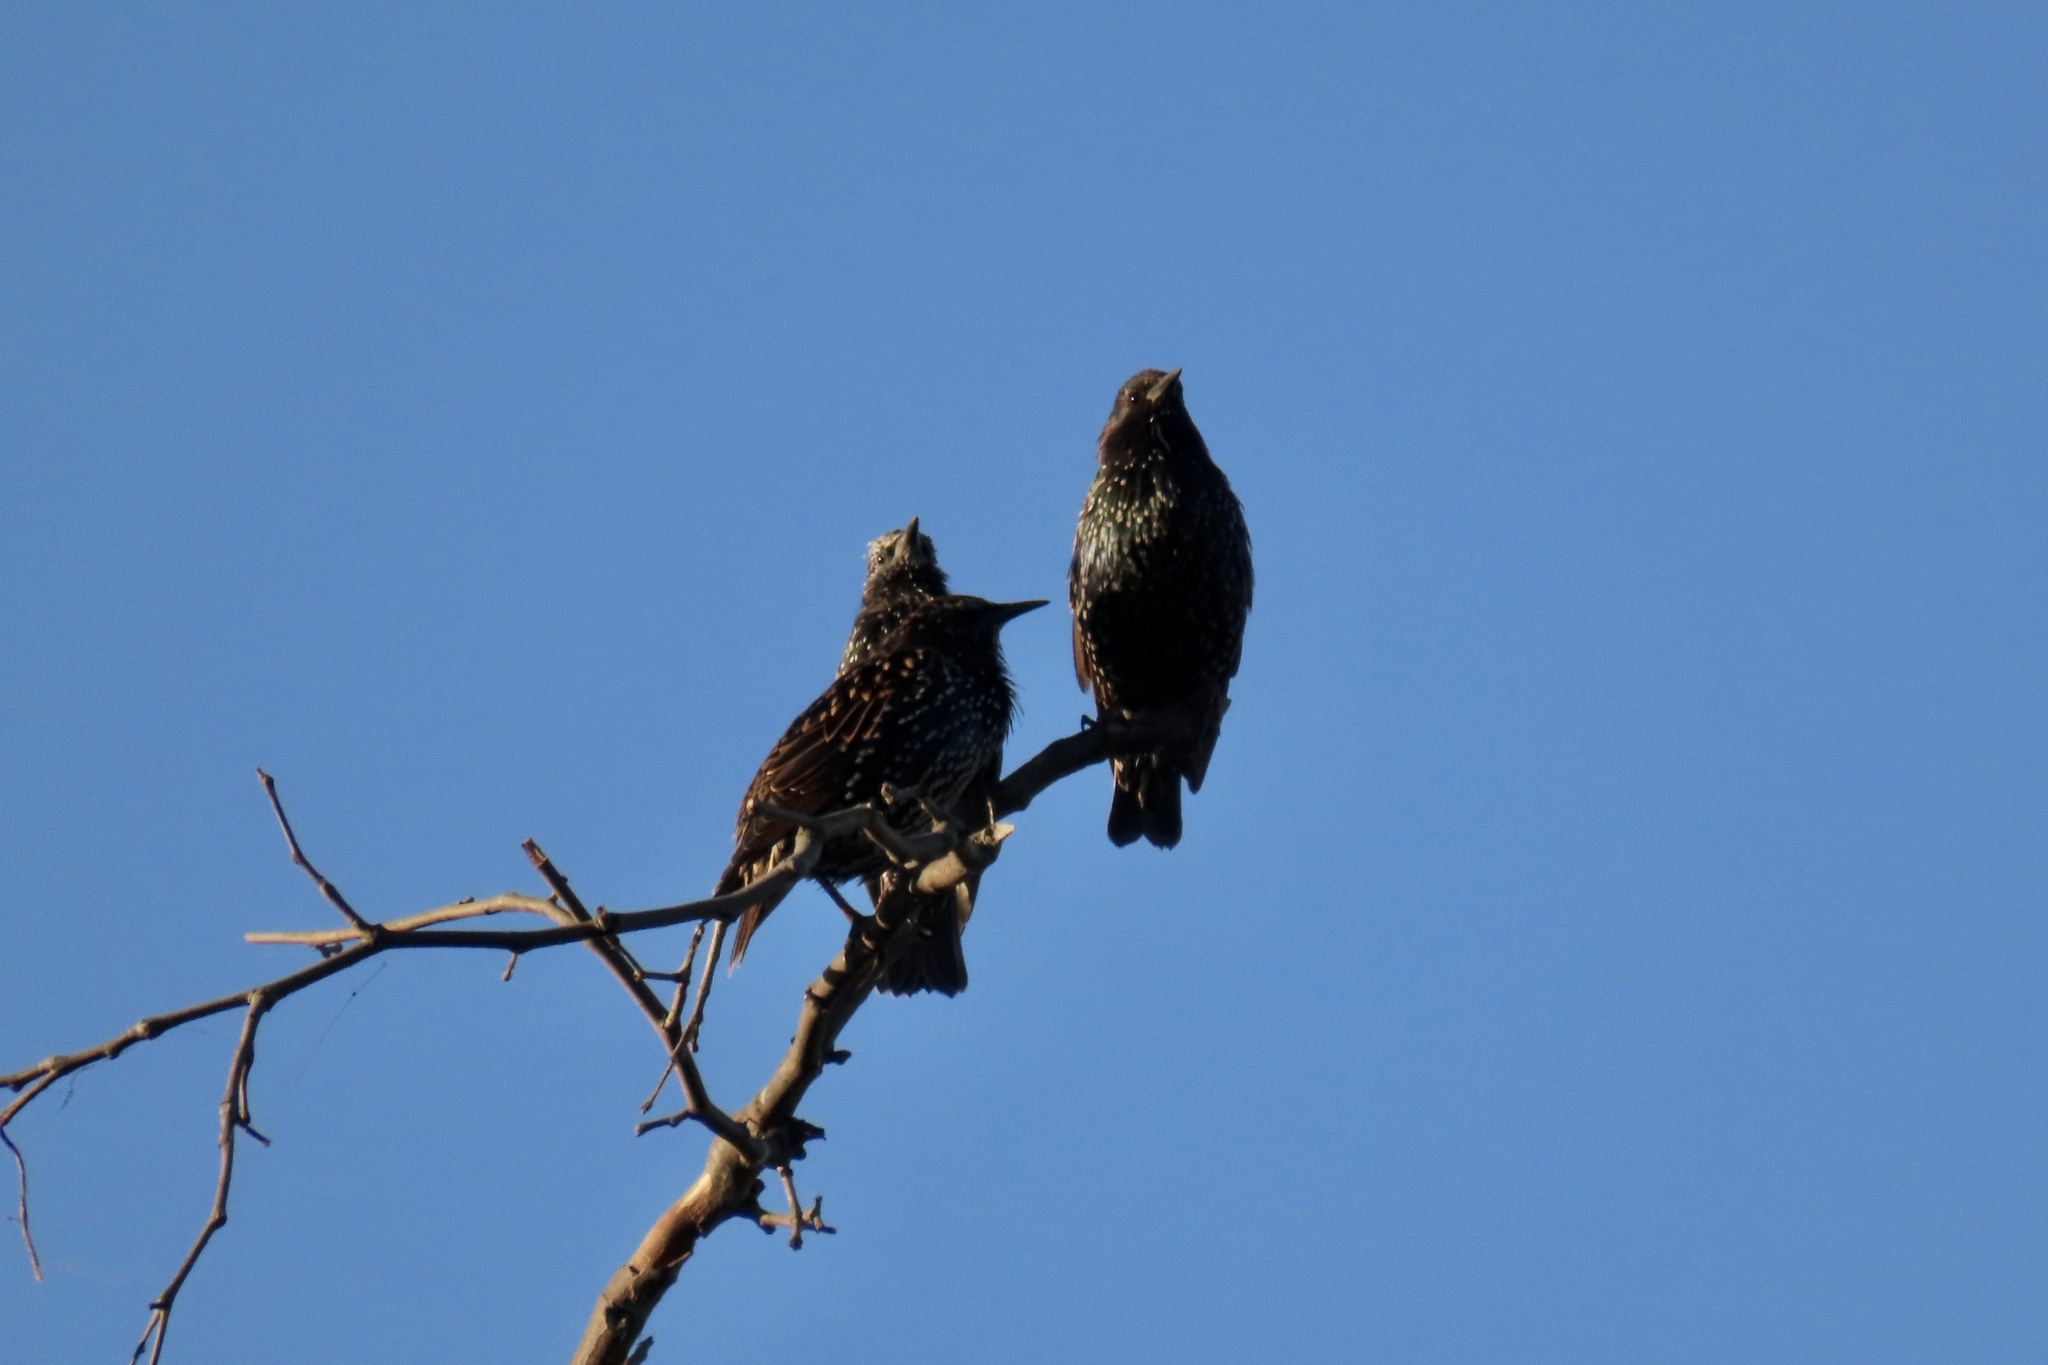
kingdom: Animalia
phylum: Chordata
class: Aves
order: Passeriformes
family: Sturnidae
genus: Sturnus
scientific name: Sturnus vulgaris
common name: Common starling
